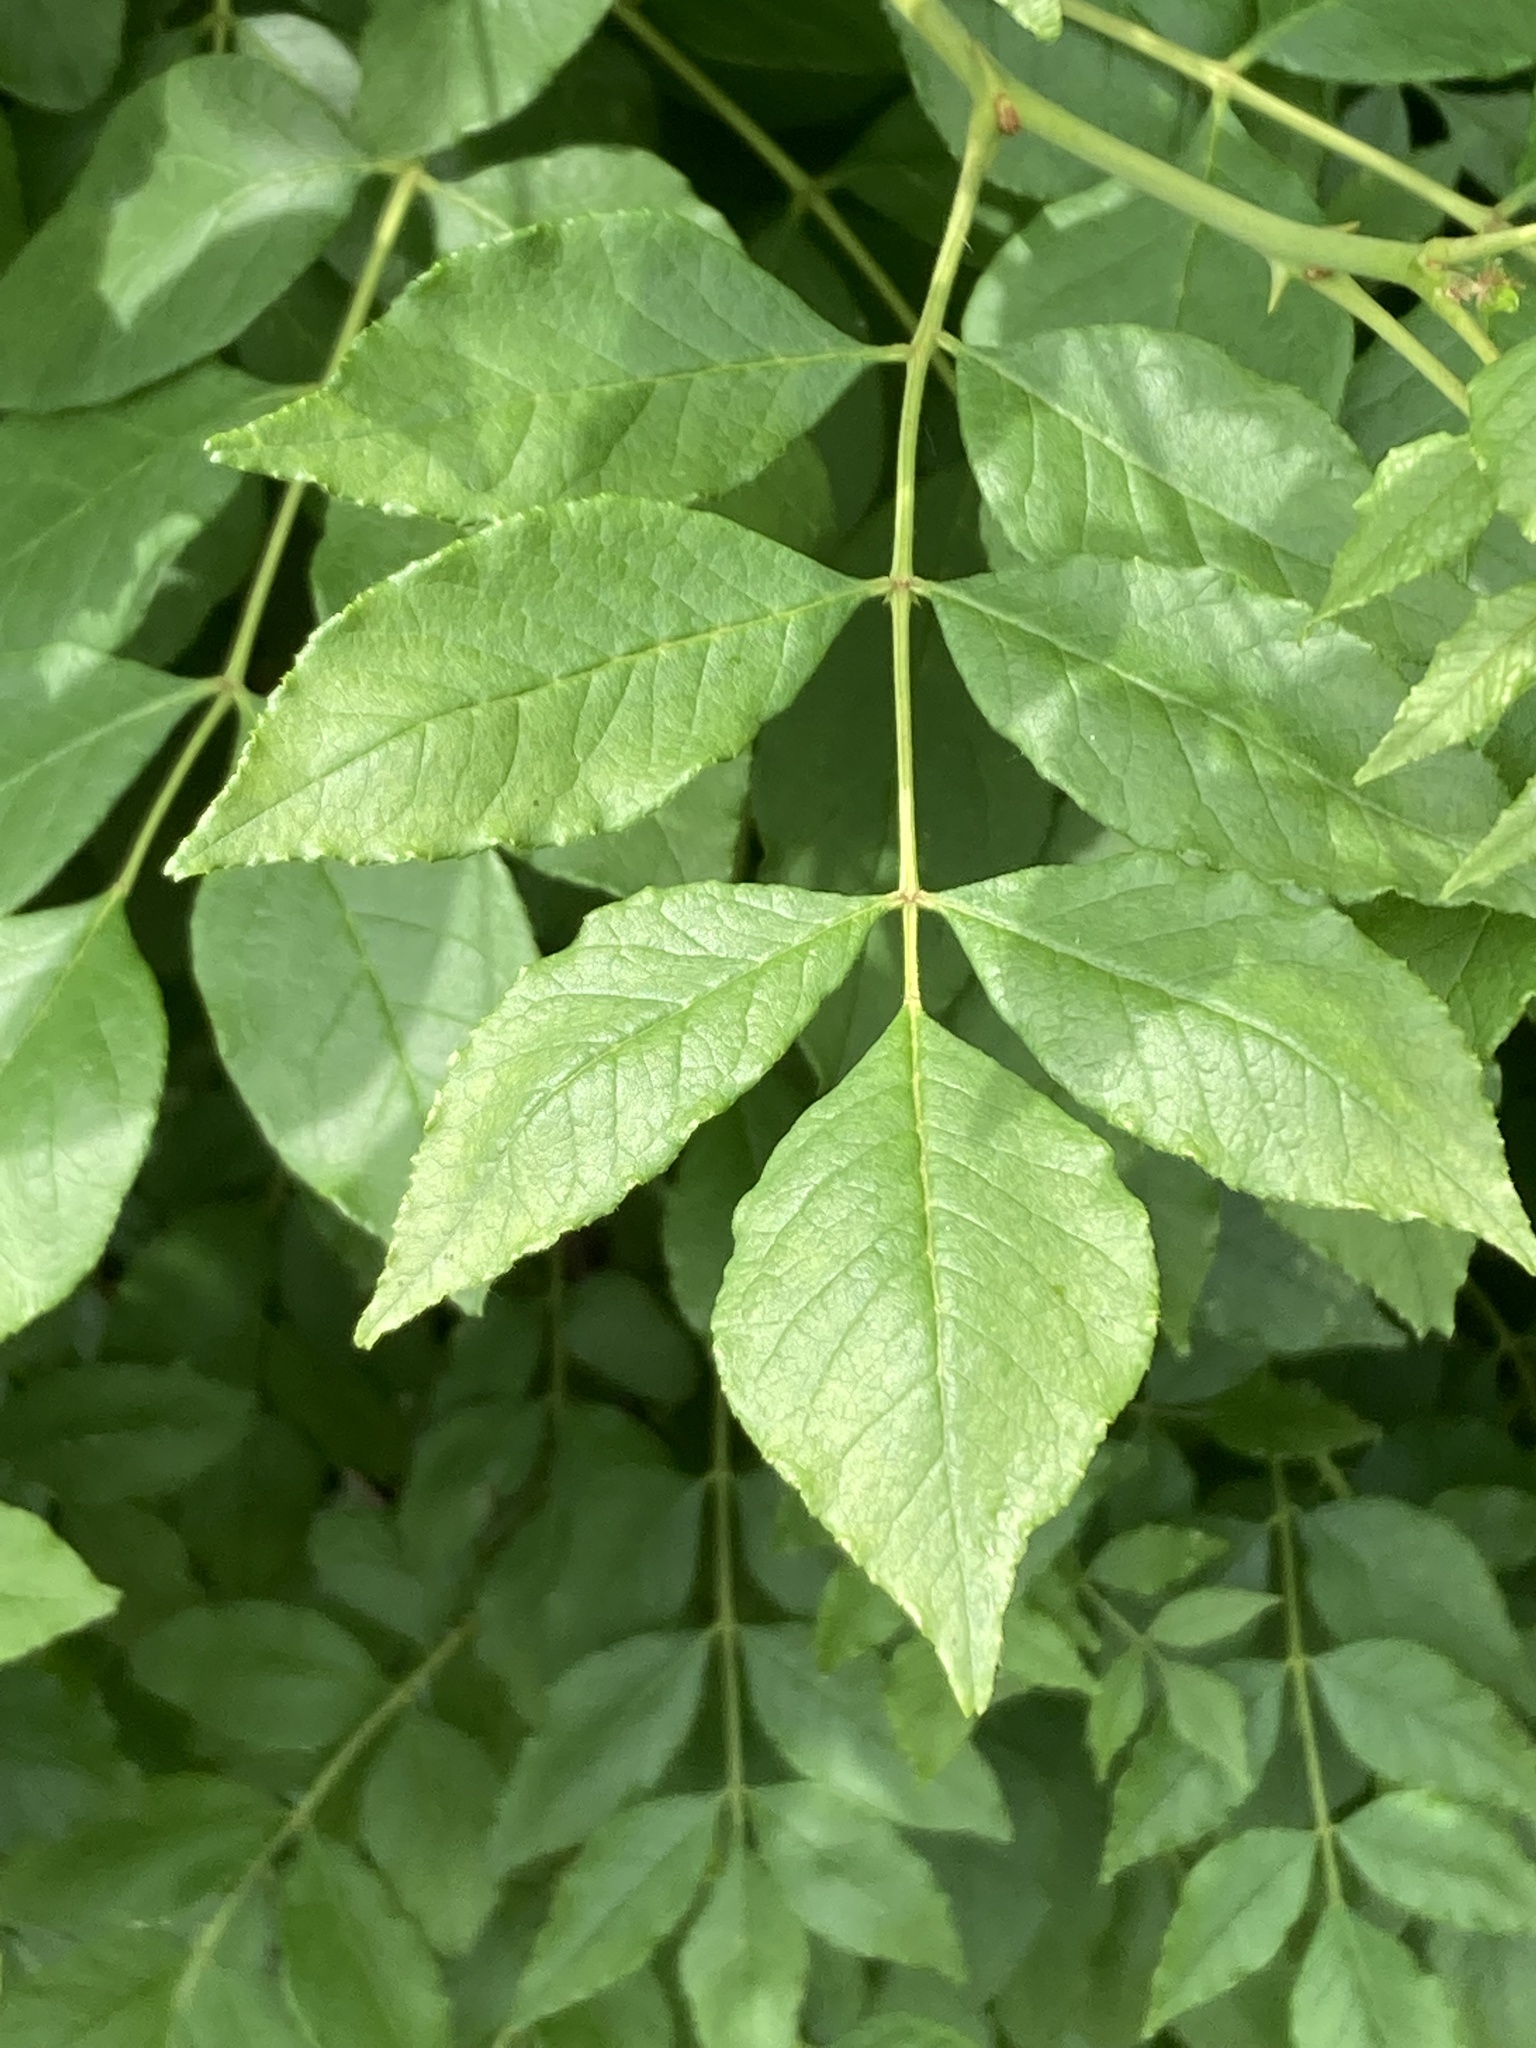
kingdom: Plantae
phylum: Tracheophyta
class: Magnoliopsida
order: Sapindales
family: Rutaceae
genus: Zanthoxylum
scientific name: Zanthoxylum americanum
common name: Northern prickly-ash
